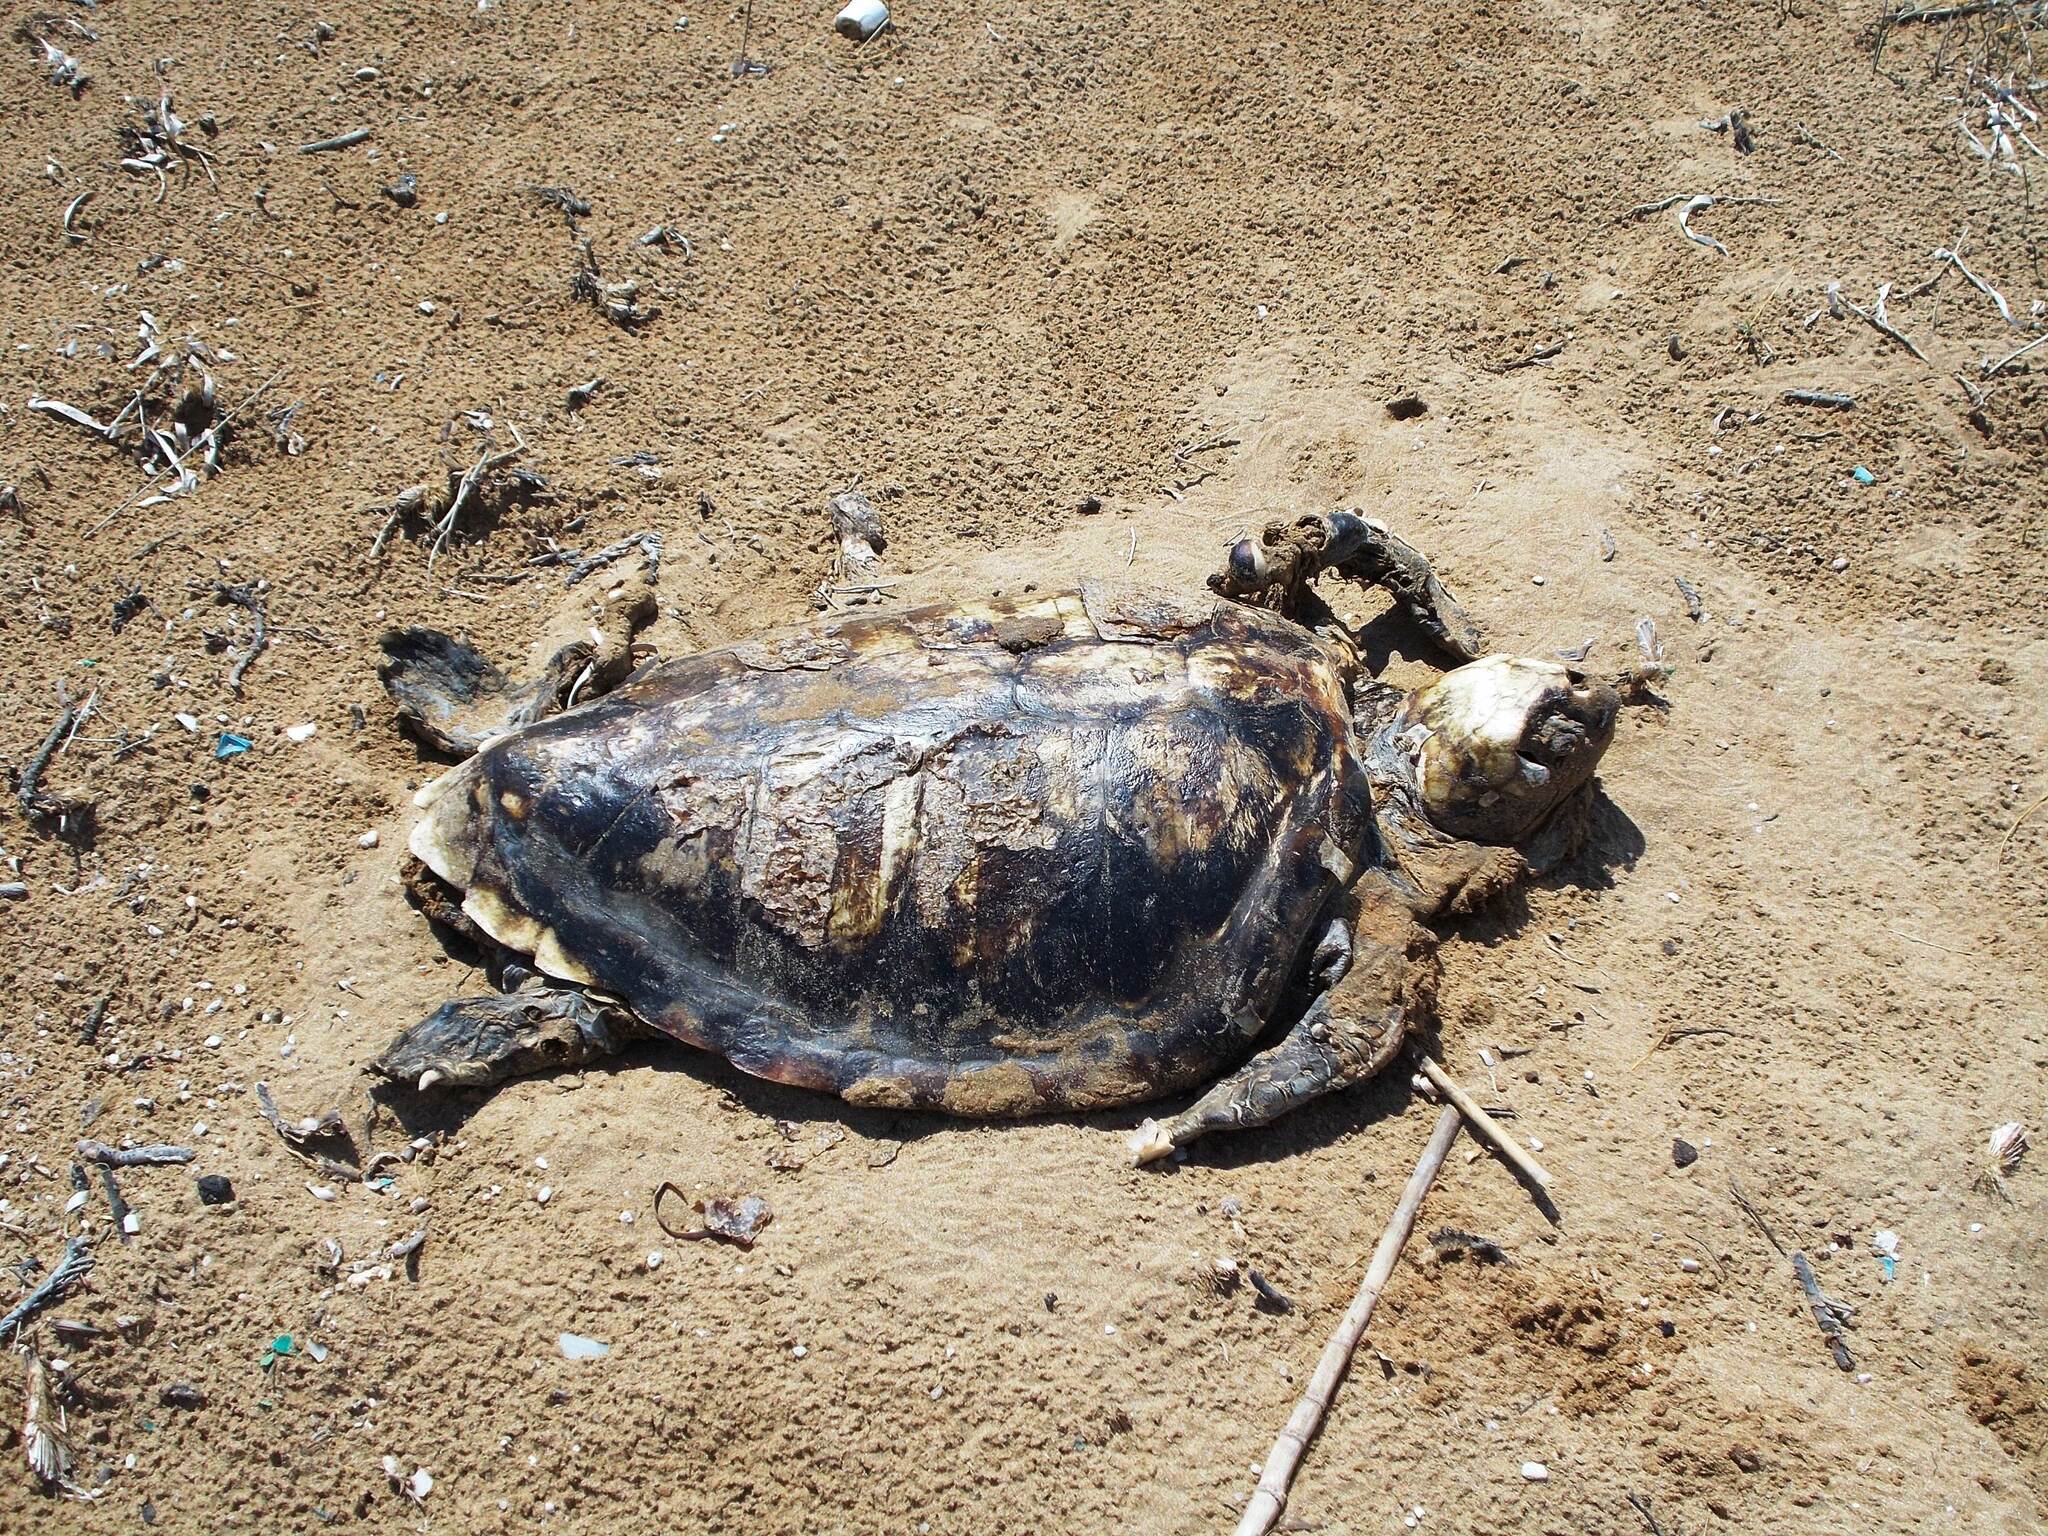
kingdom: Animalia
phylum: Chordata
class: Testudines
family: Cheloniidae
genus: Caretta
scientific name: Caretta caretta
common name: Loggerhead sea turtle
